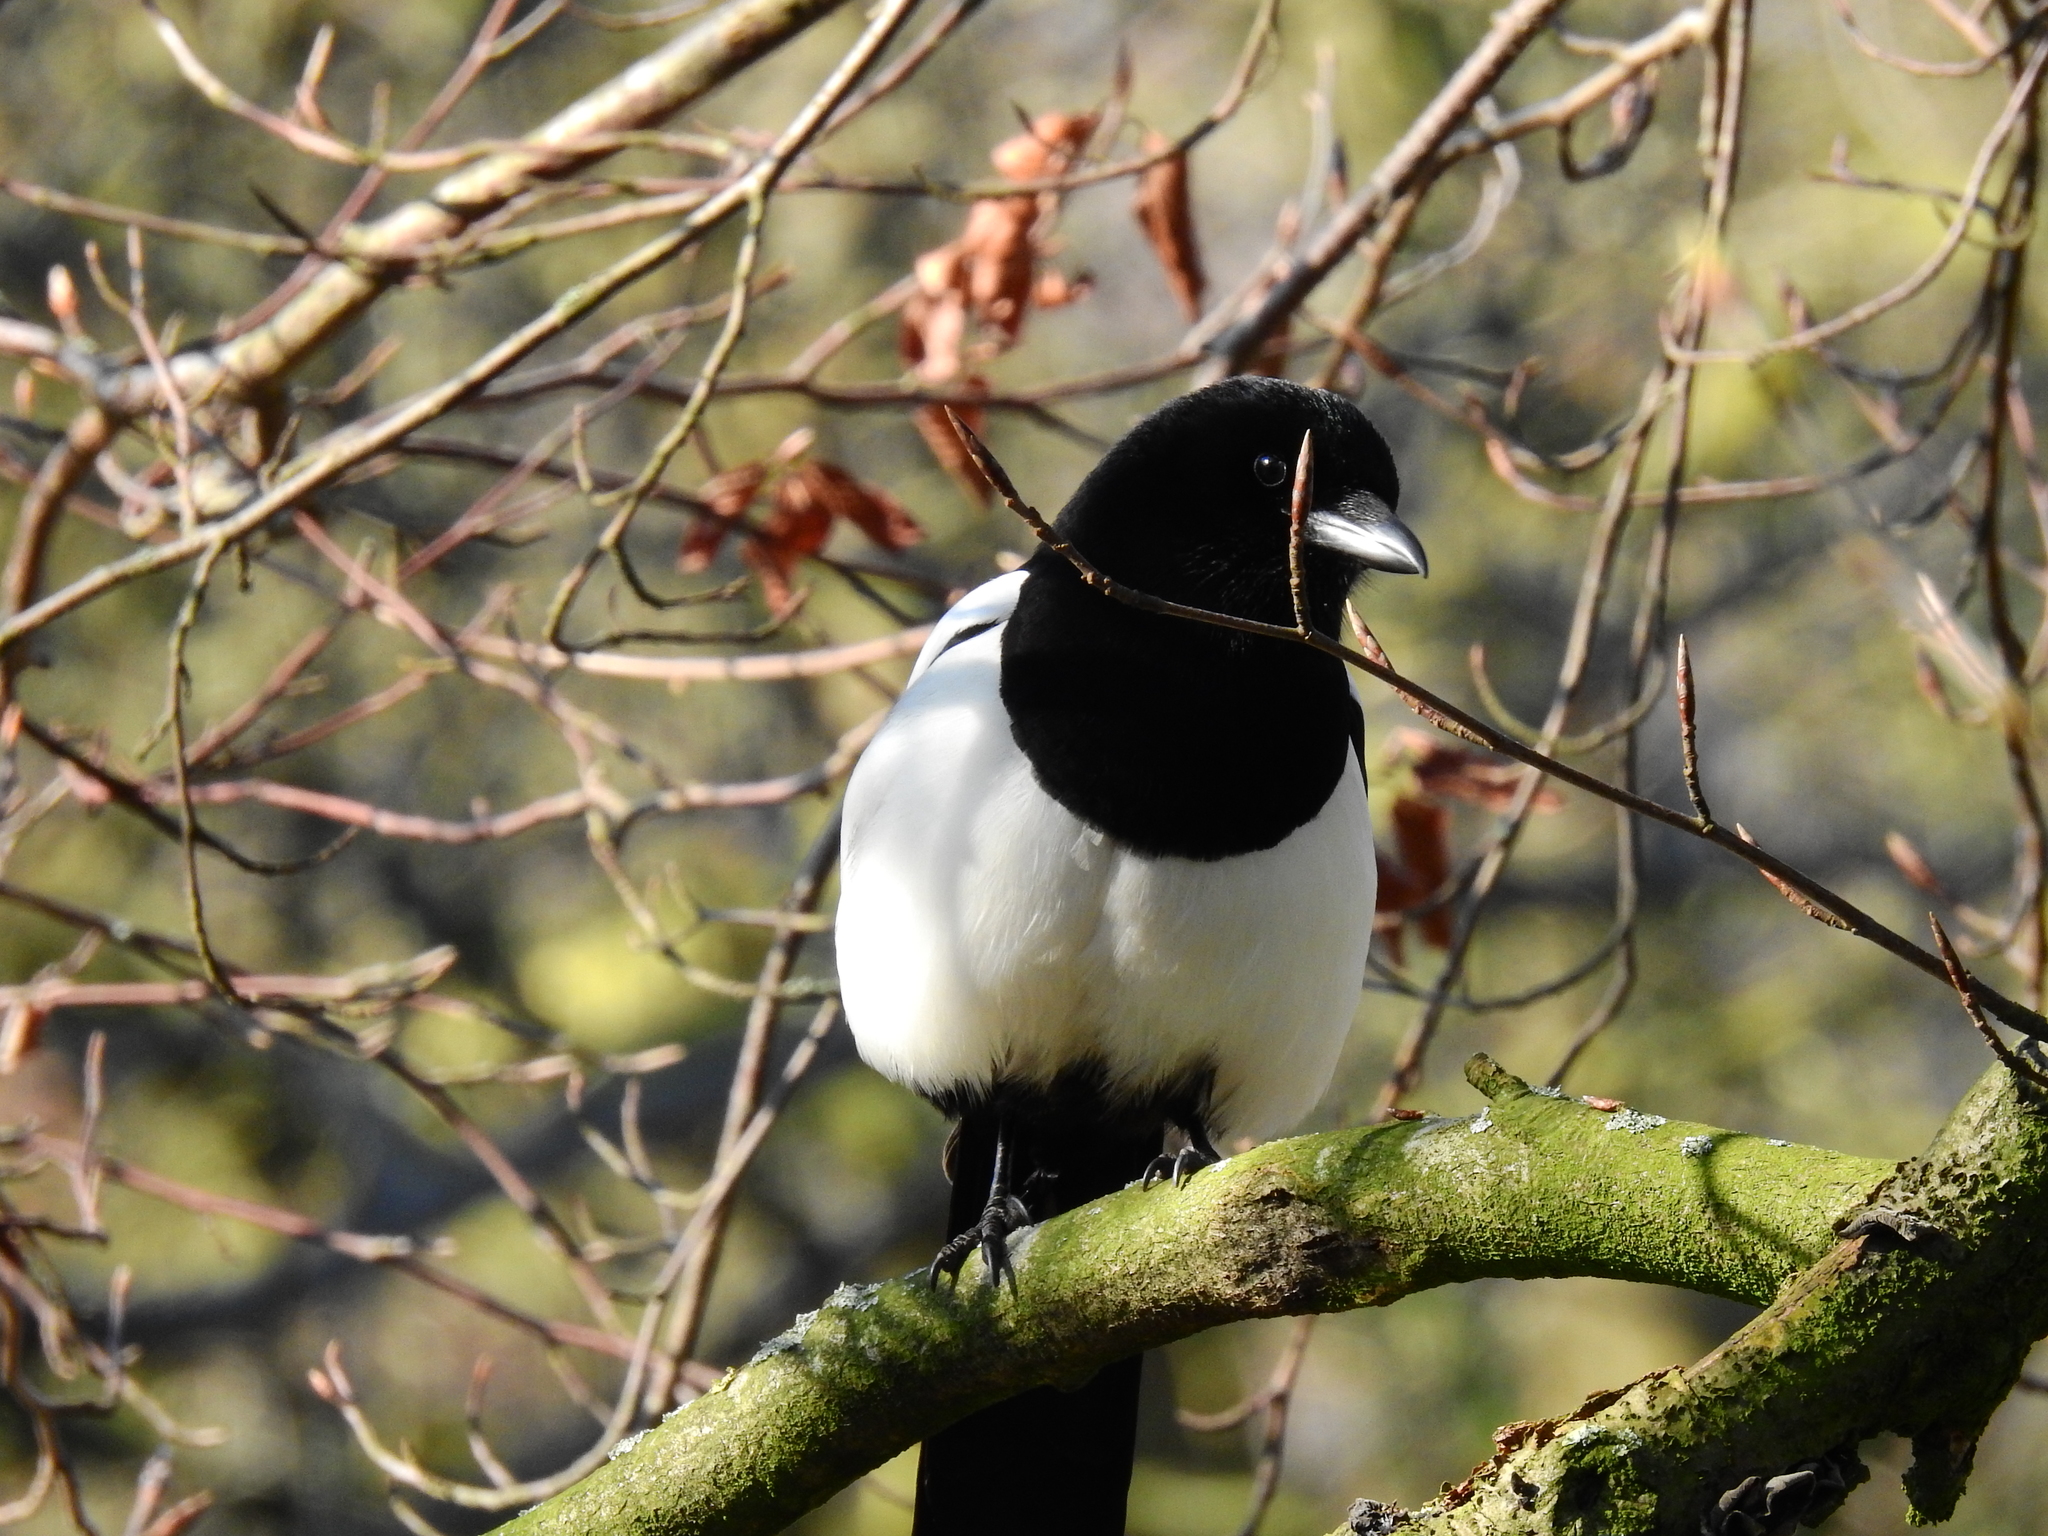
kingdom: Animalia
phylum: Chordata
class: Aves
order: Passeriformes
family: Corvidae
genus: Pica
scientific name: Pica pica
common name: Eurasian magpie
